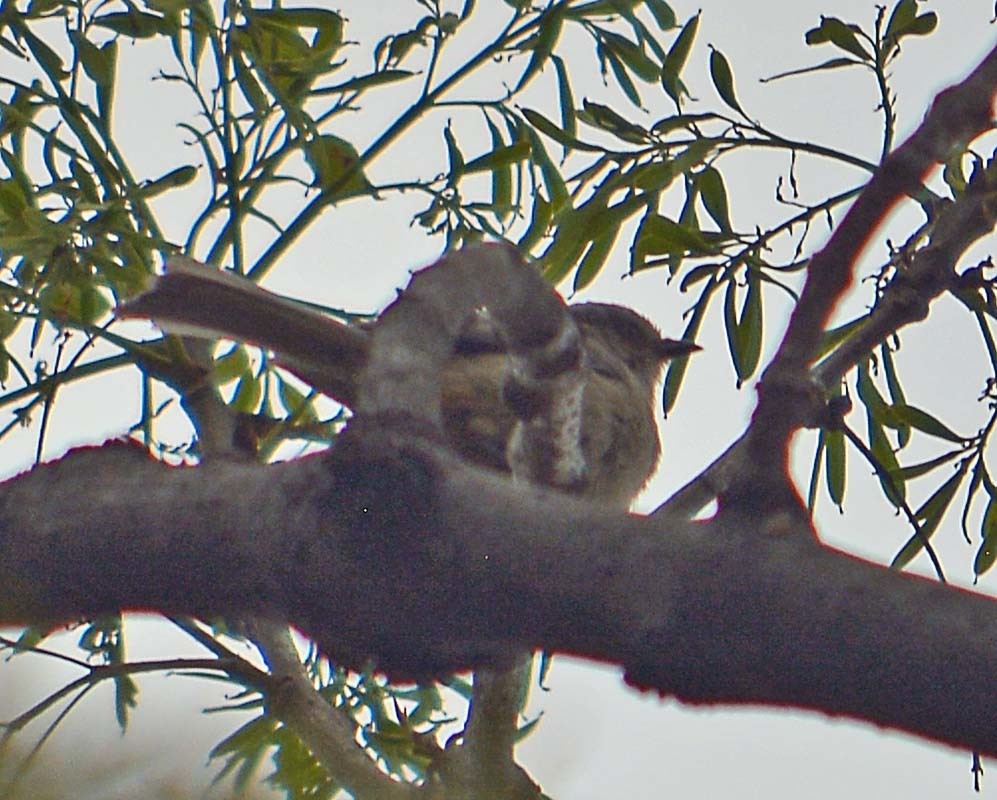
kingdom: Animalia
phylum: Chordata
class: Aves
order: Passeriformes
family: Aegithalidae
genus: Psaltriparus
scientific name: Psaltriparus minimus
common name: American bushtit
